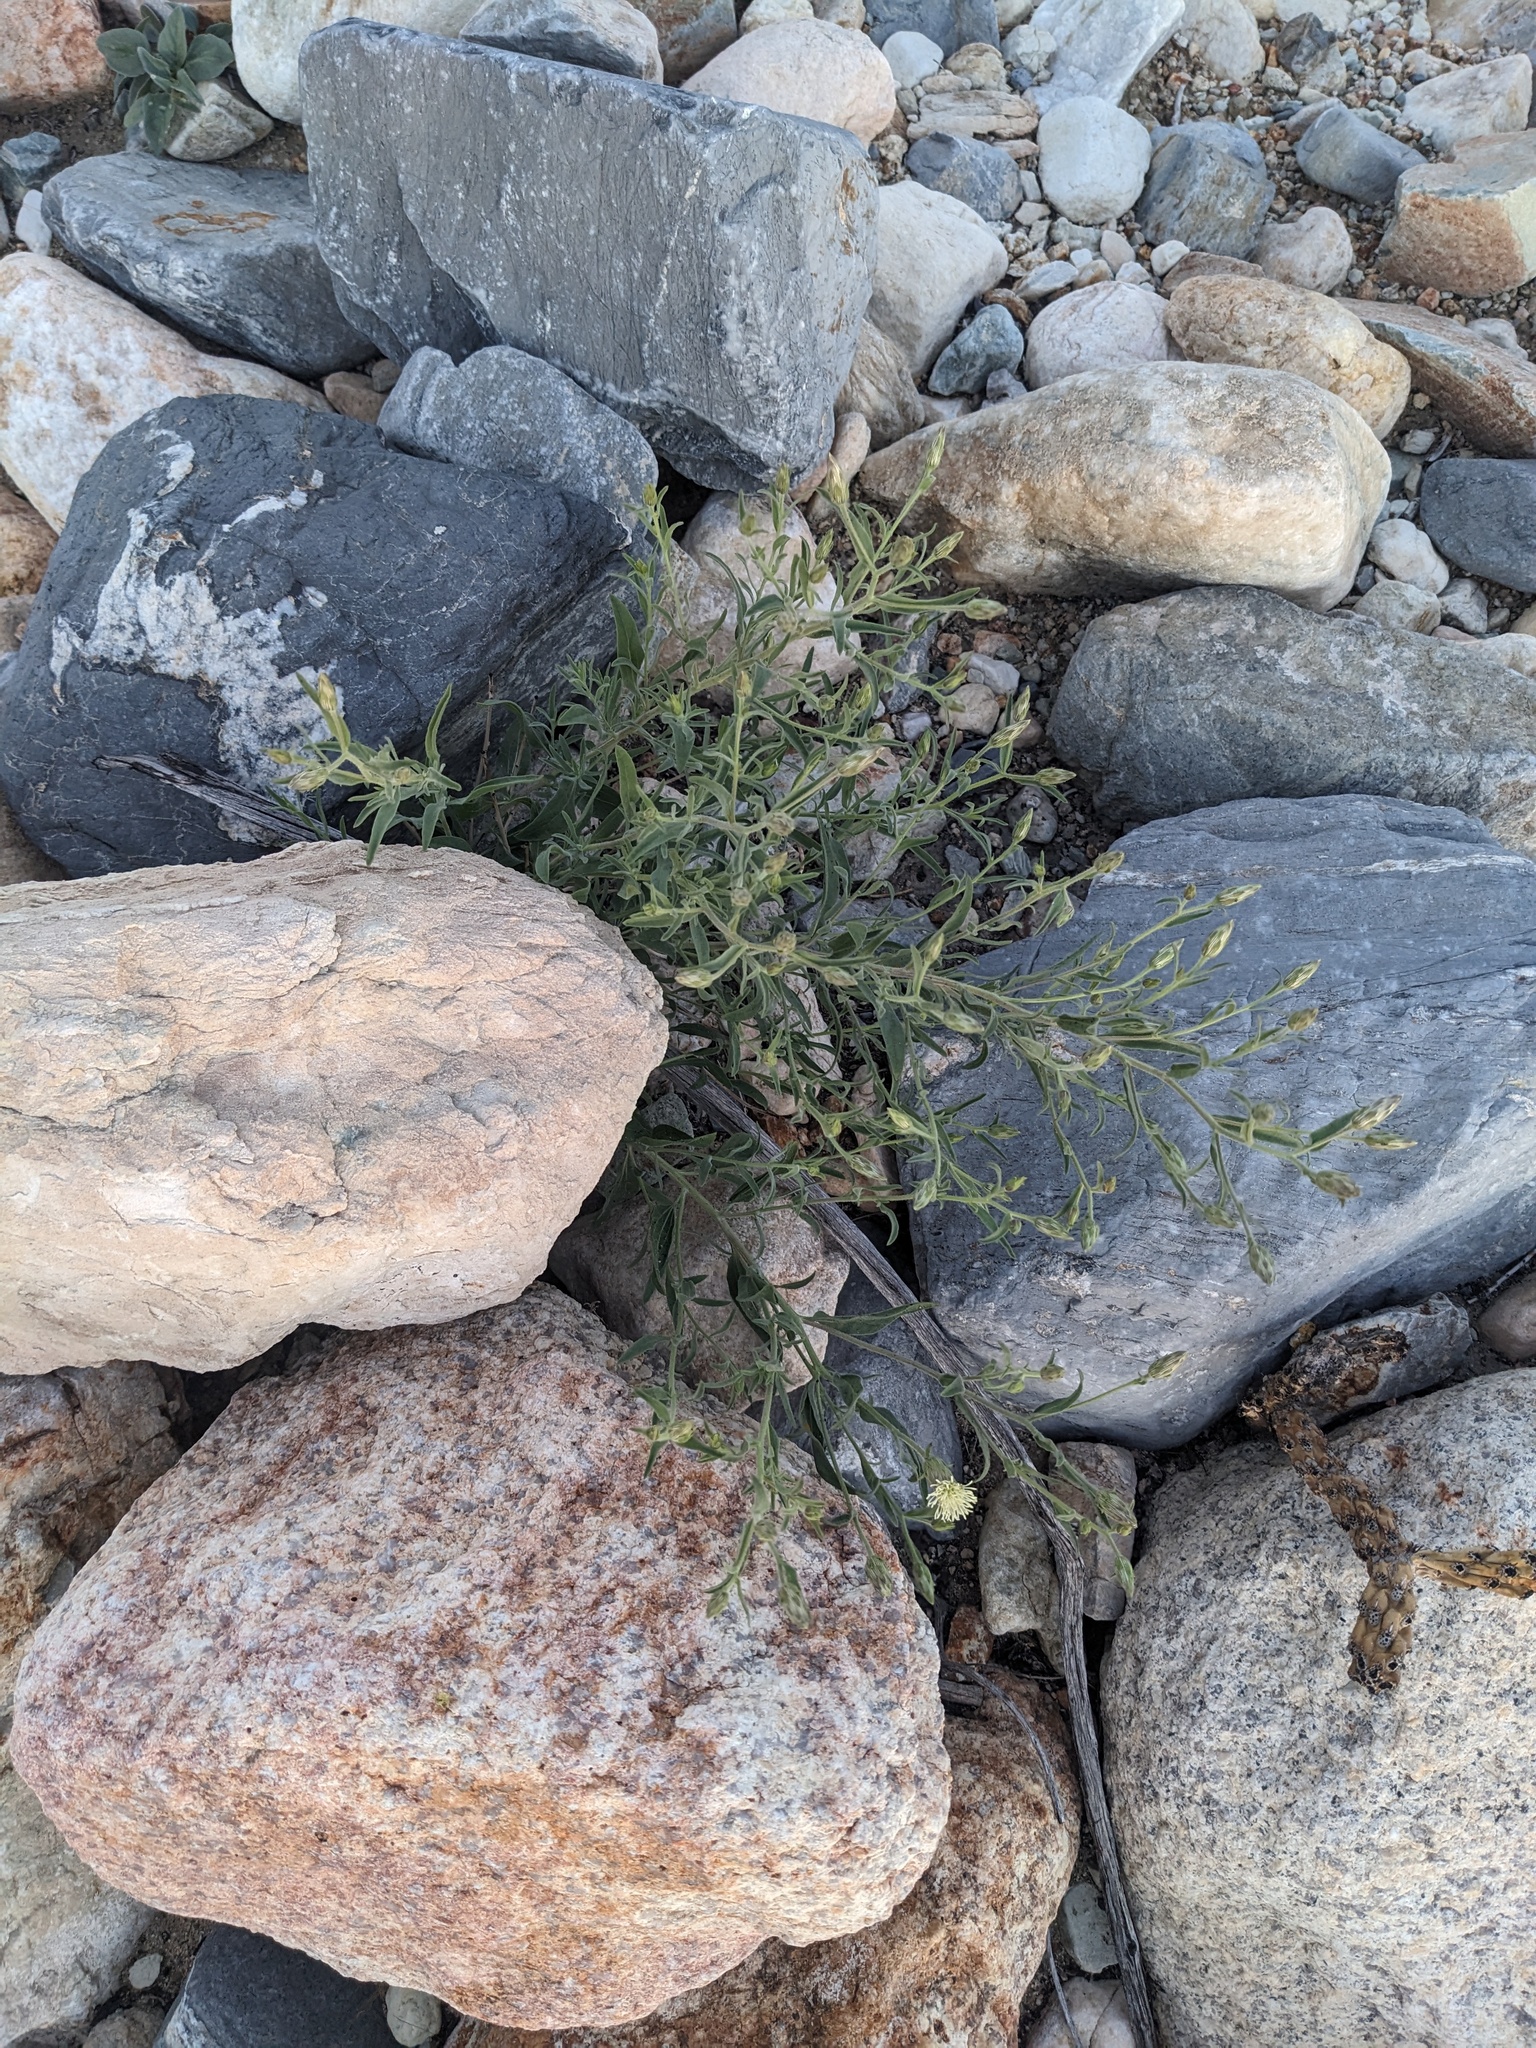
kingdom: Plantae
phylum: Tracheophyta
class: Magnoliopsida
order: Asterales
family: Asteraceae
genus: Brickellia
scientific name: Brickellia oblongifolia
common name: Mojave brickellbush
